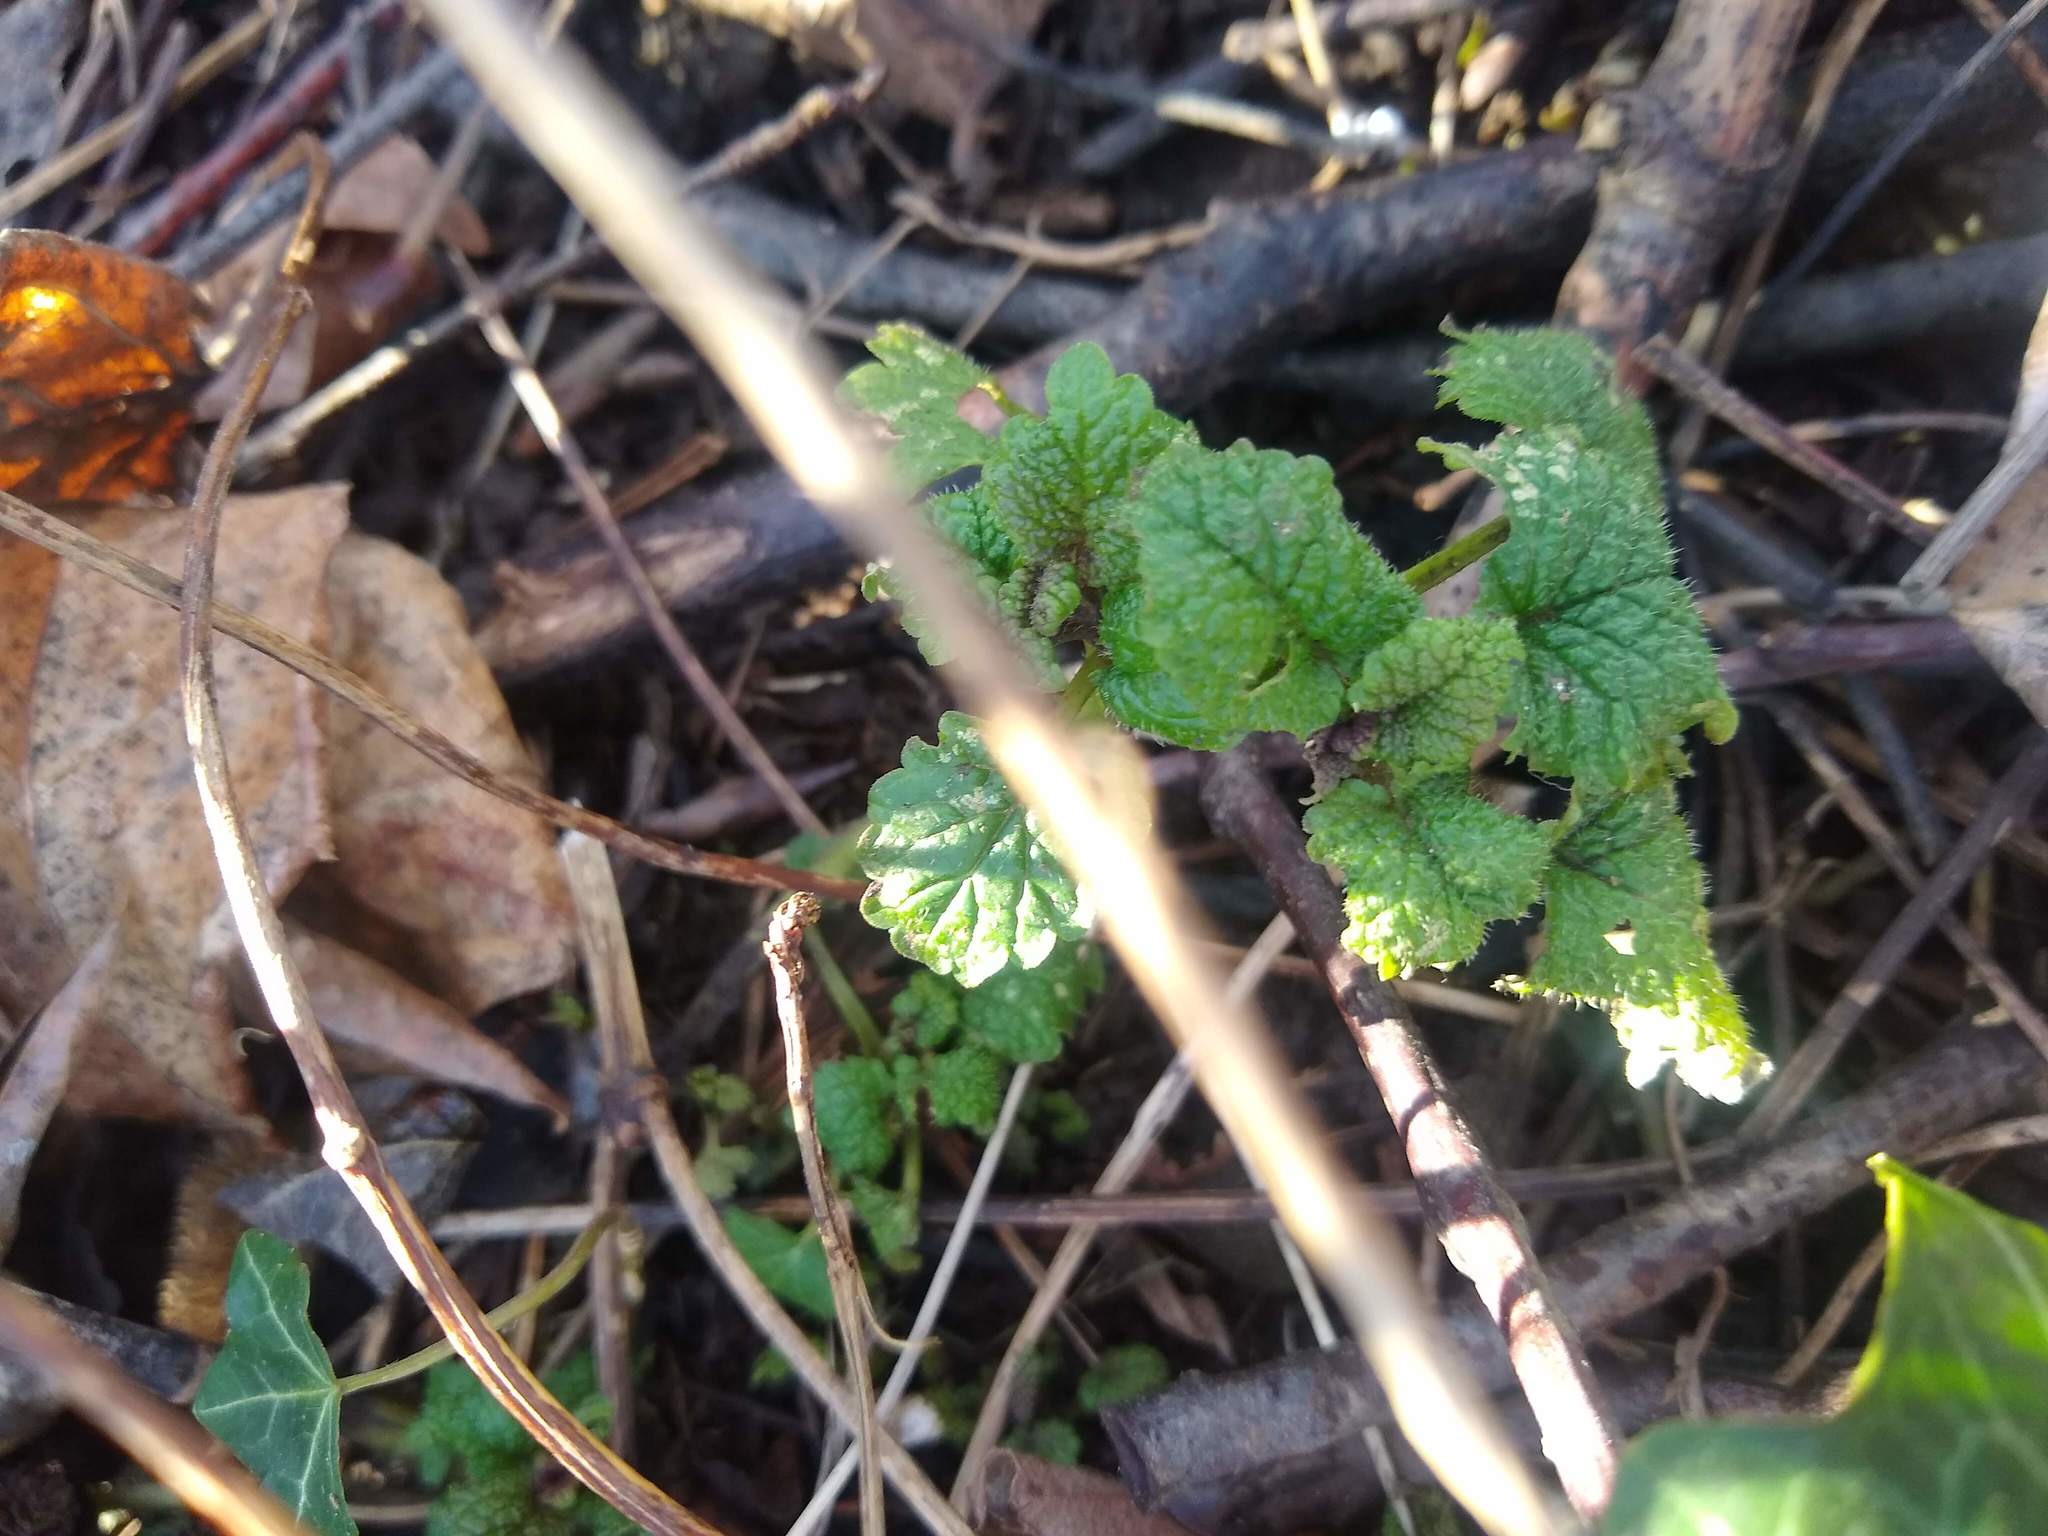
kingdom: Plantae
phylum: Tracheophyta
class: Magnoliopsida
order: Lamiales
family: Lamiaceae
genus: Melissa
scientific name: Melissa officinalis
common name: Balm
